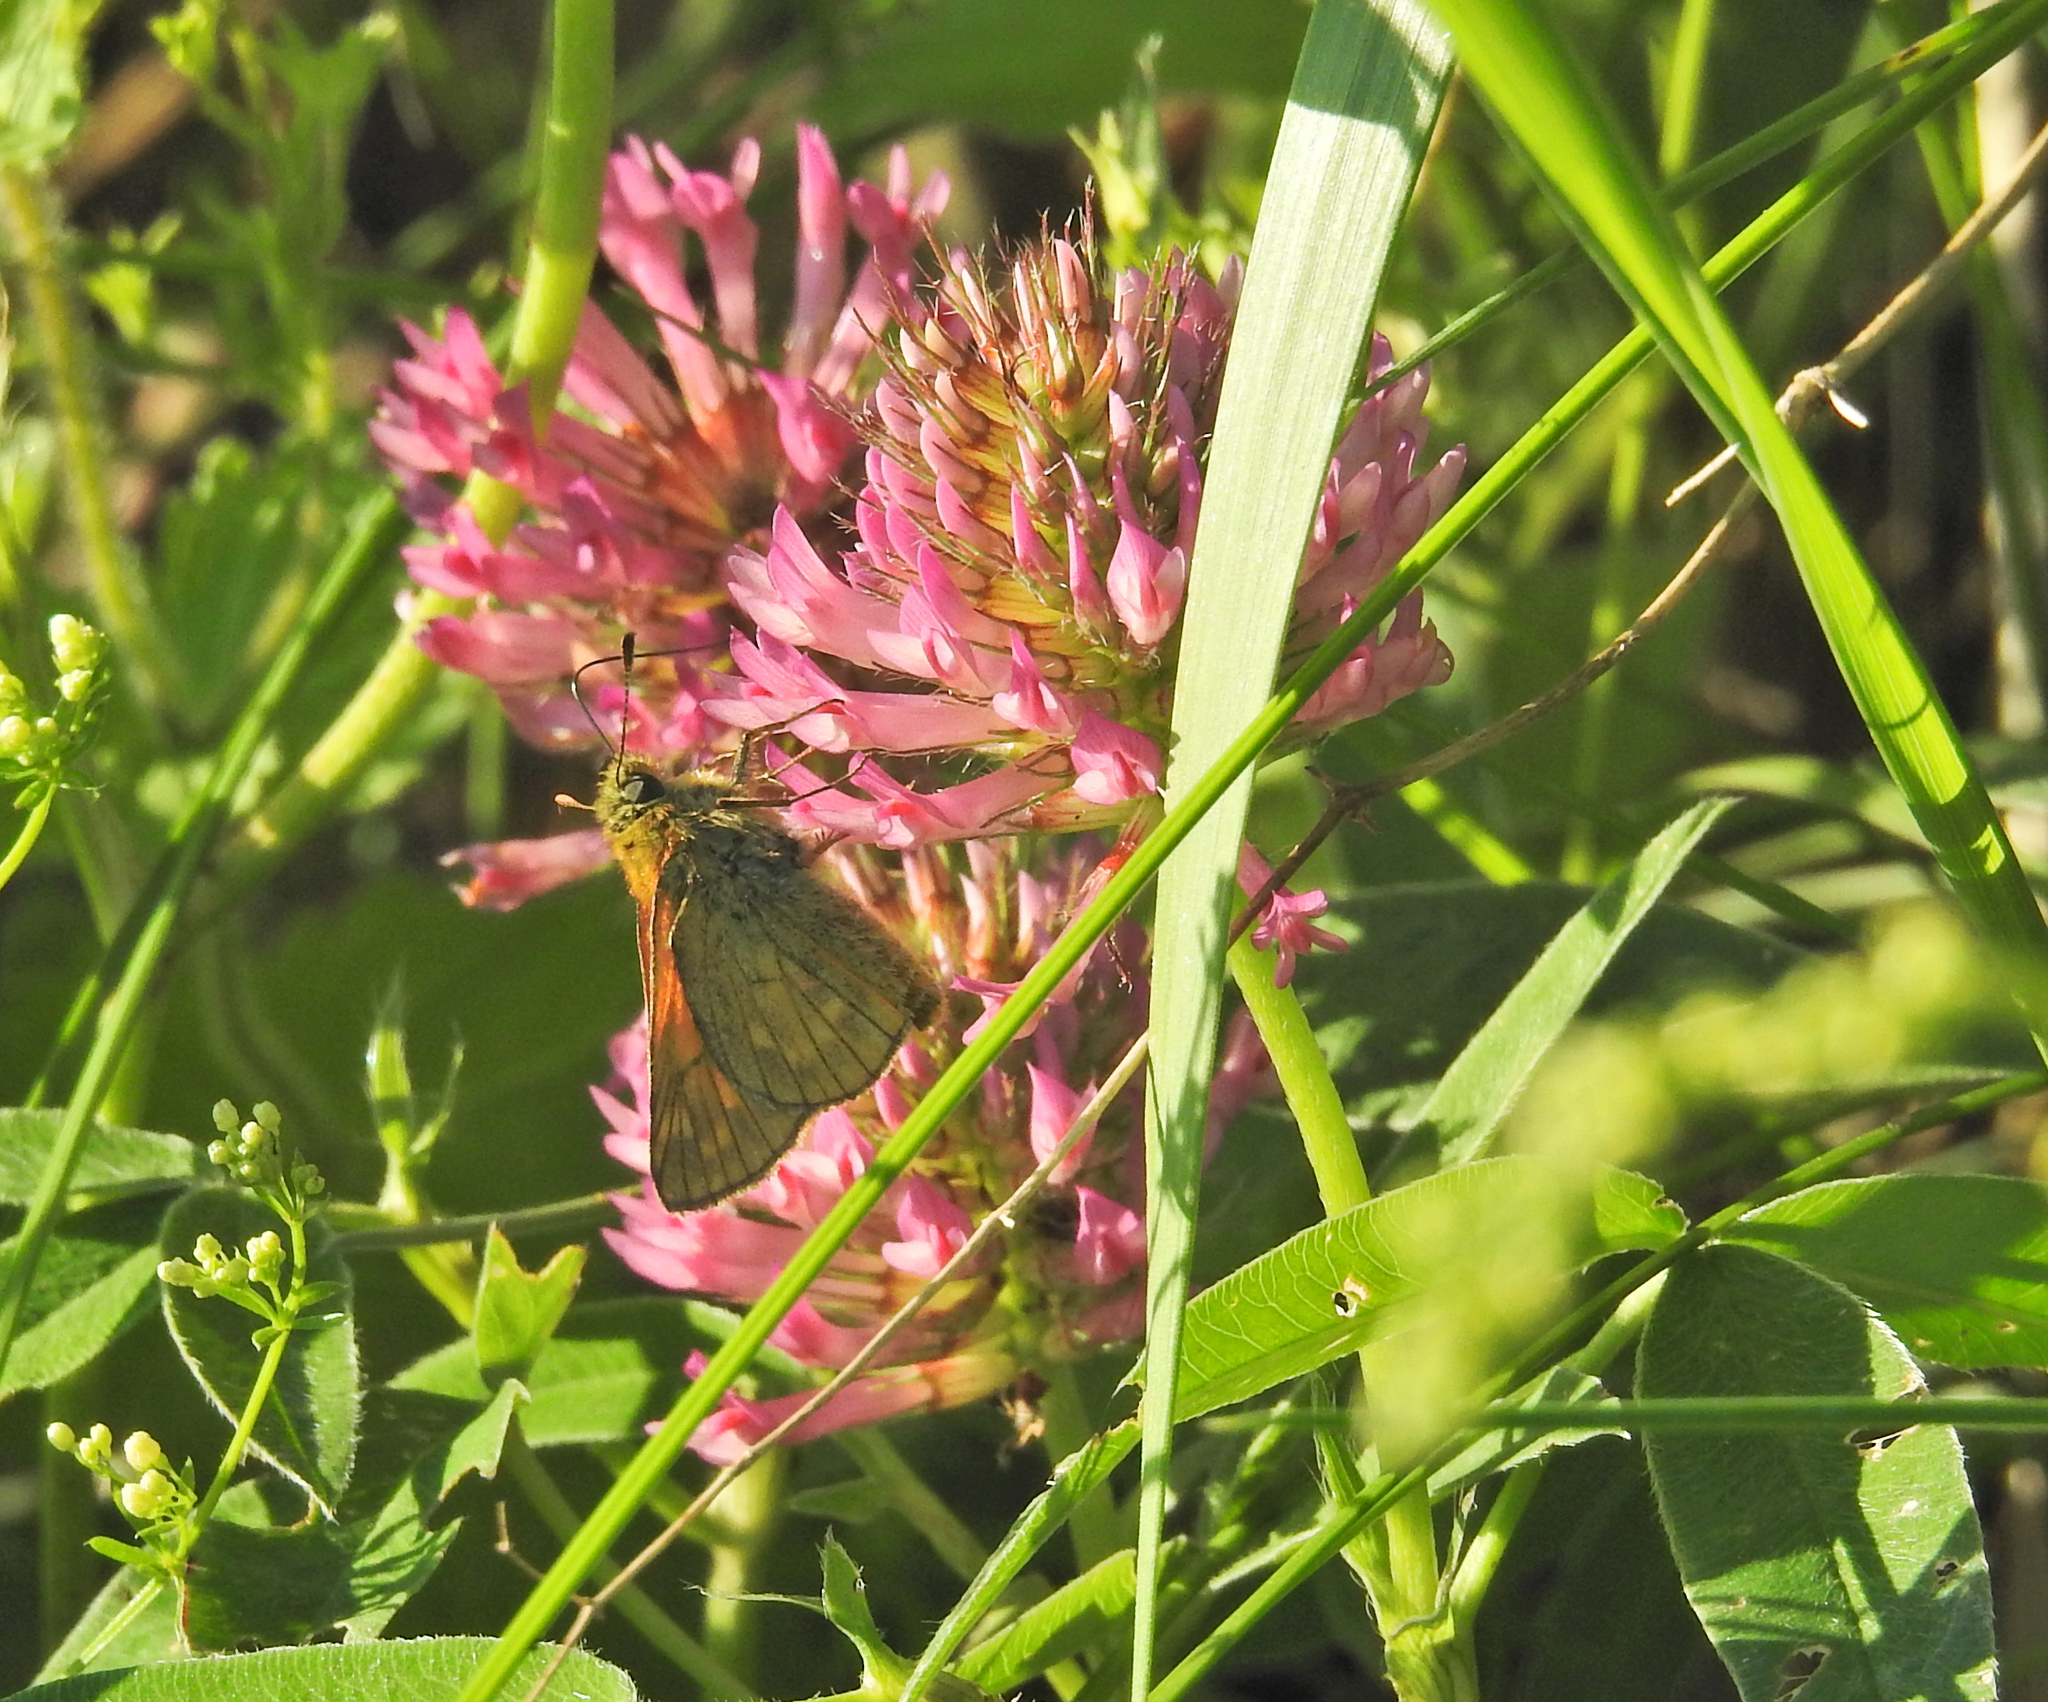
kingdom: Animalia
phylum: Arthropoda
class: Insecta
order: Lepidoptera
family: Hesperiidae
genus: Ochlodes
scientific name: Ochlodes venata
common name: Large skipper
